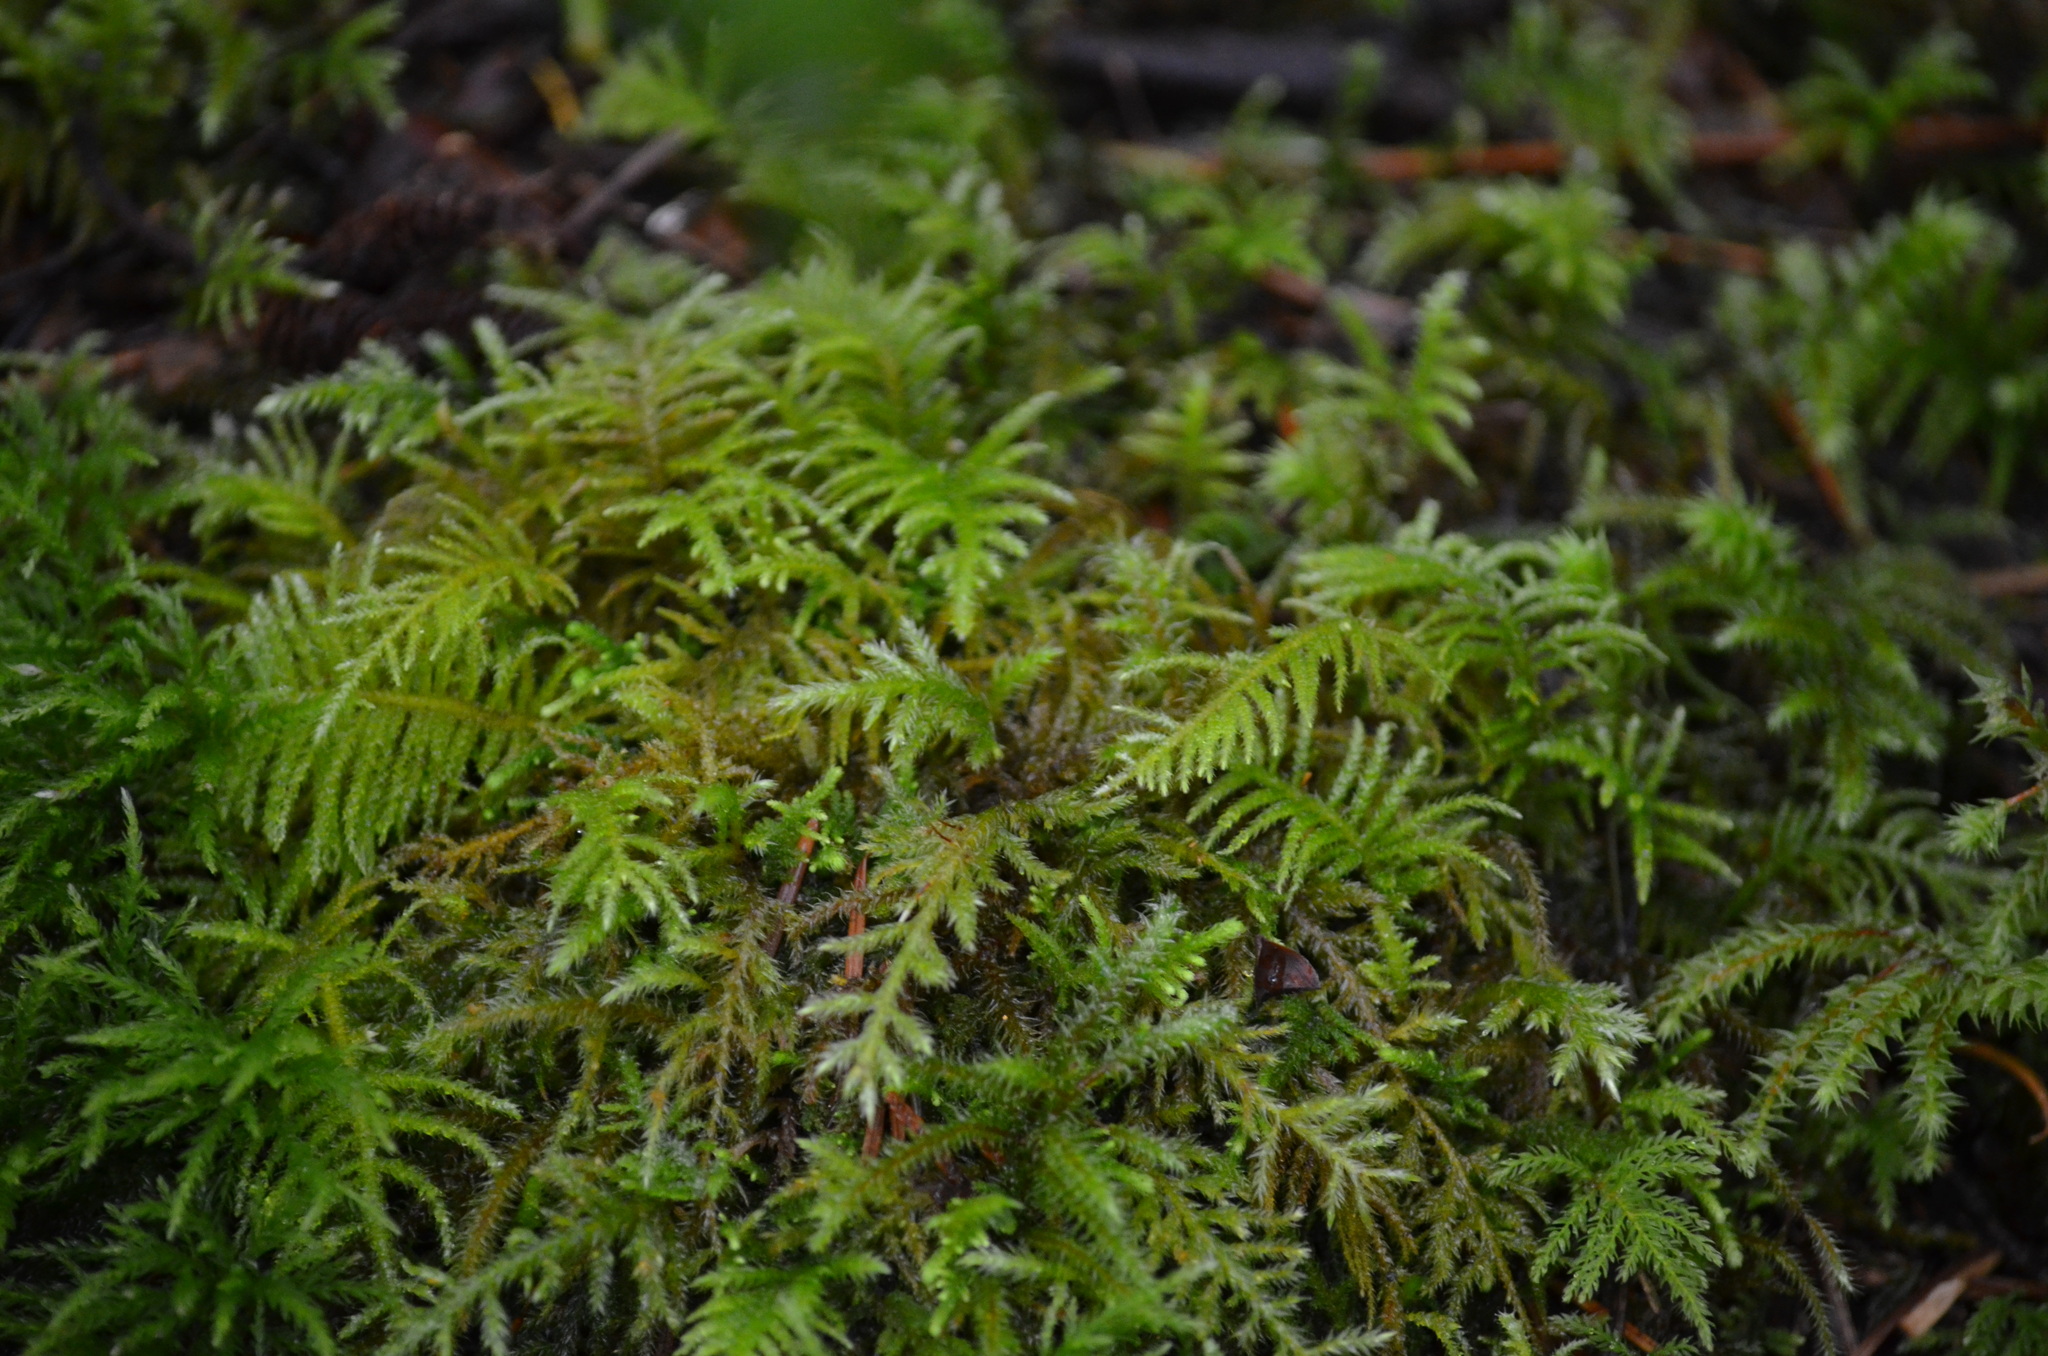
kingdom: Plantae
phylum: Bryophyta
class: Bryopsida
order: Hypnales
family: Brachytheciaceae
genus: Kindbergia
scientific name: Kindbergia oregana
